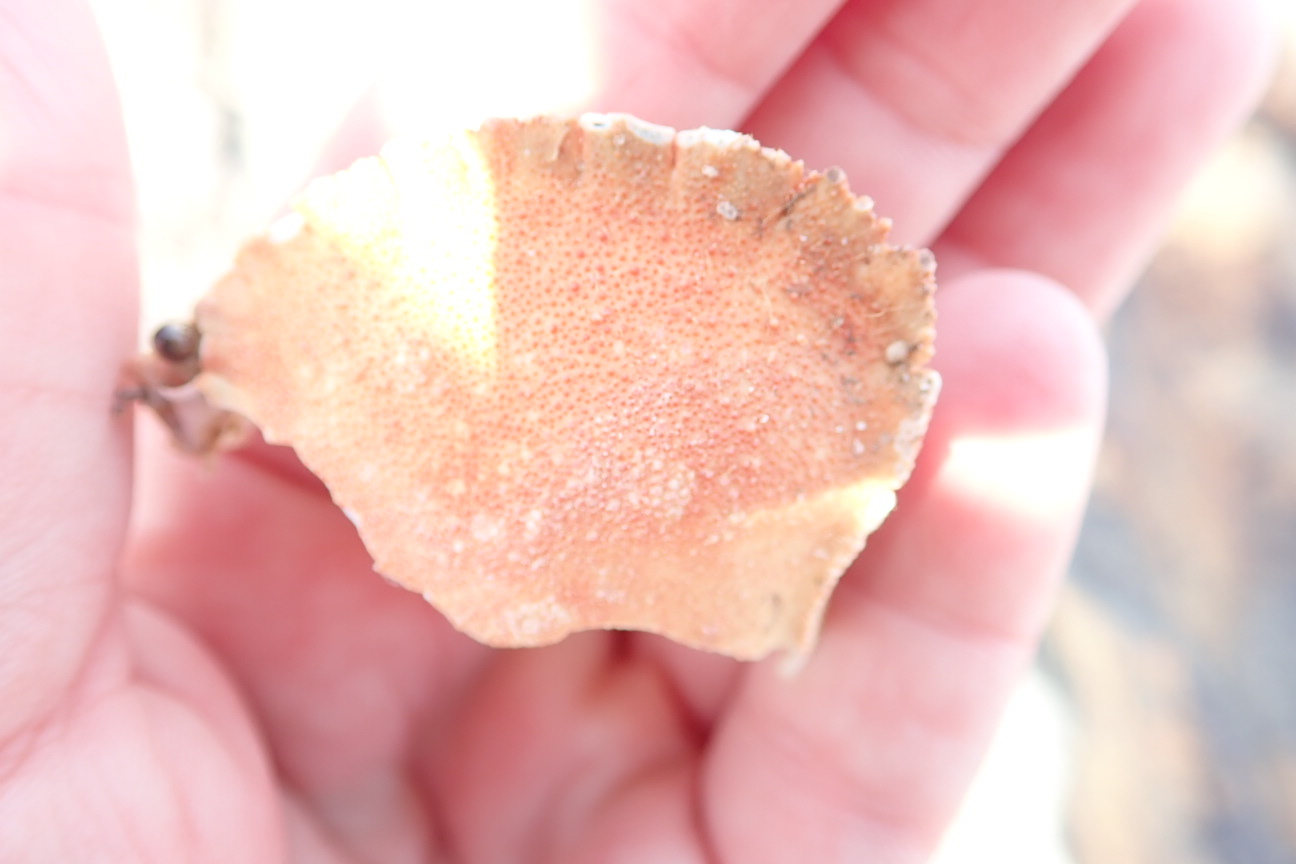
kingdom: Animalia
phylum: Arthropoda
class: Malacostraca
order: Decapoda
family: Cancridae
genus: Cancer
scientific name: Cancer borealis
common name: Jonah crab
